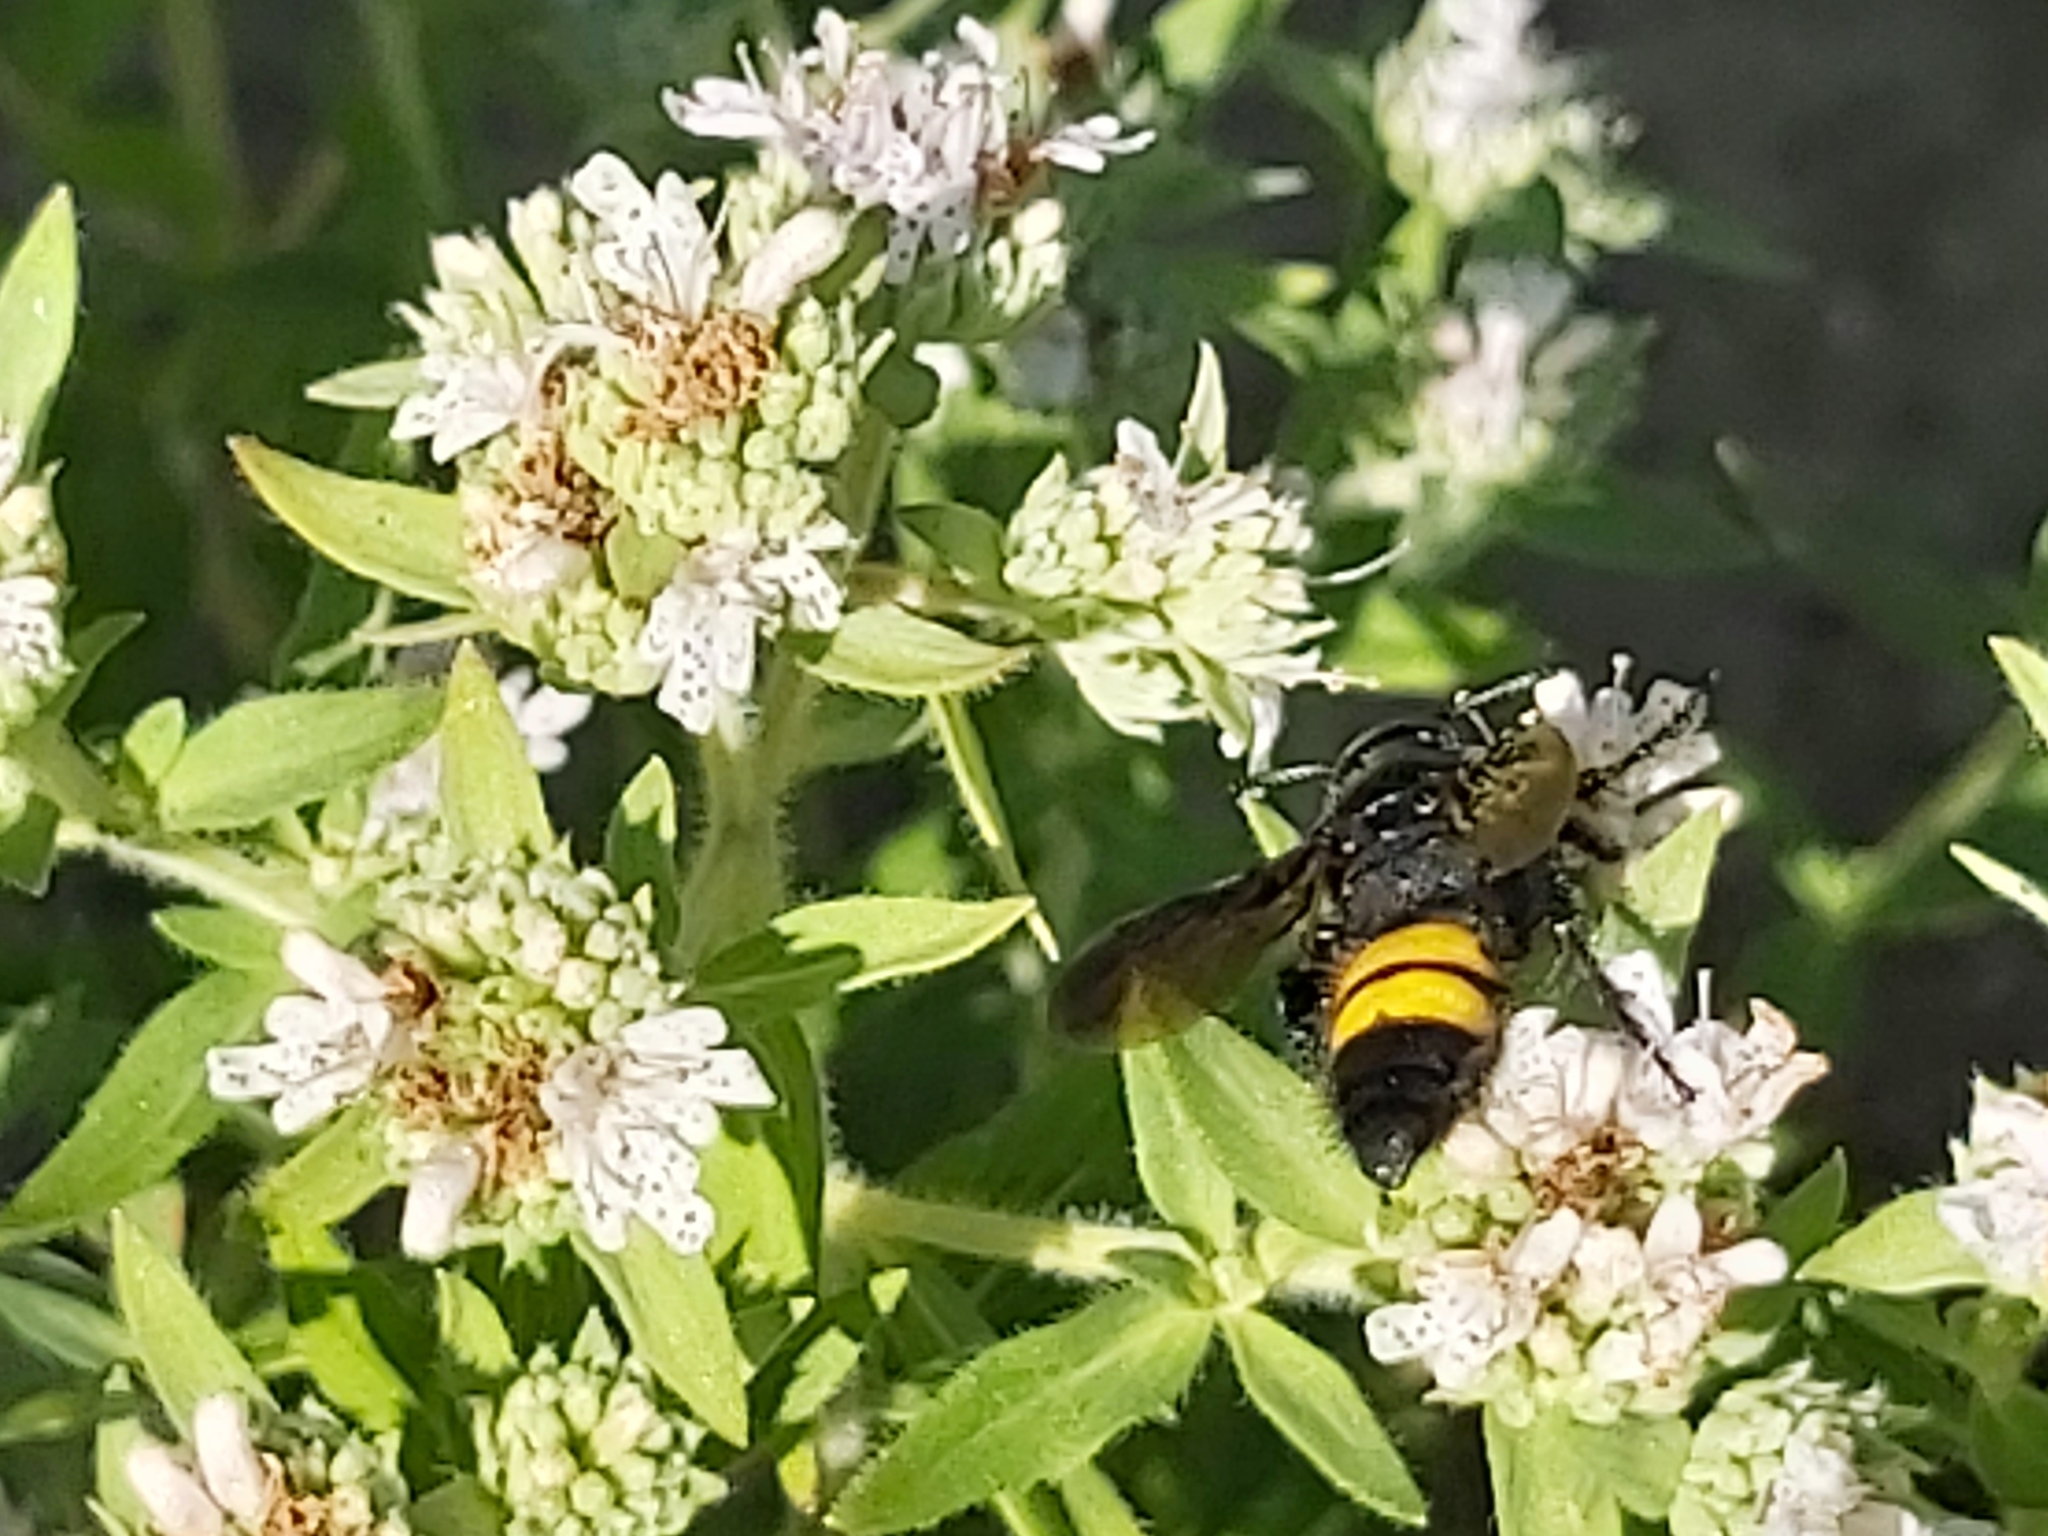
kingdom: Animalia
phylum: Arthropoda
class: Insecta
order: Hymenoptera
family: Scoliidae
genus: Scolia
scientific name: Scolia hirta
